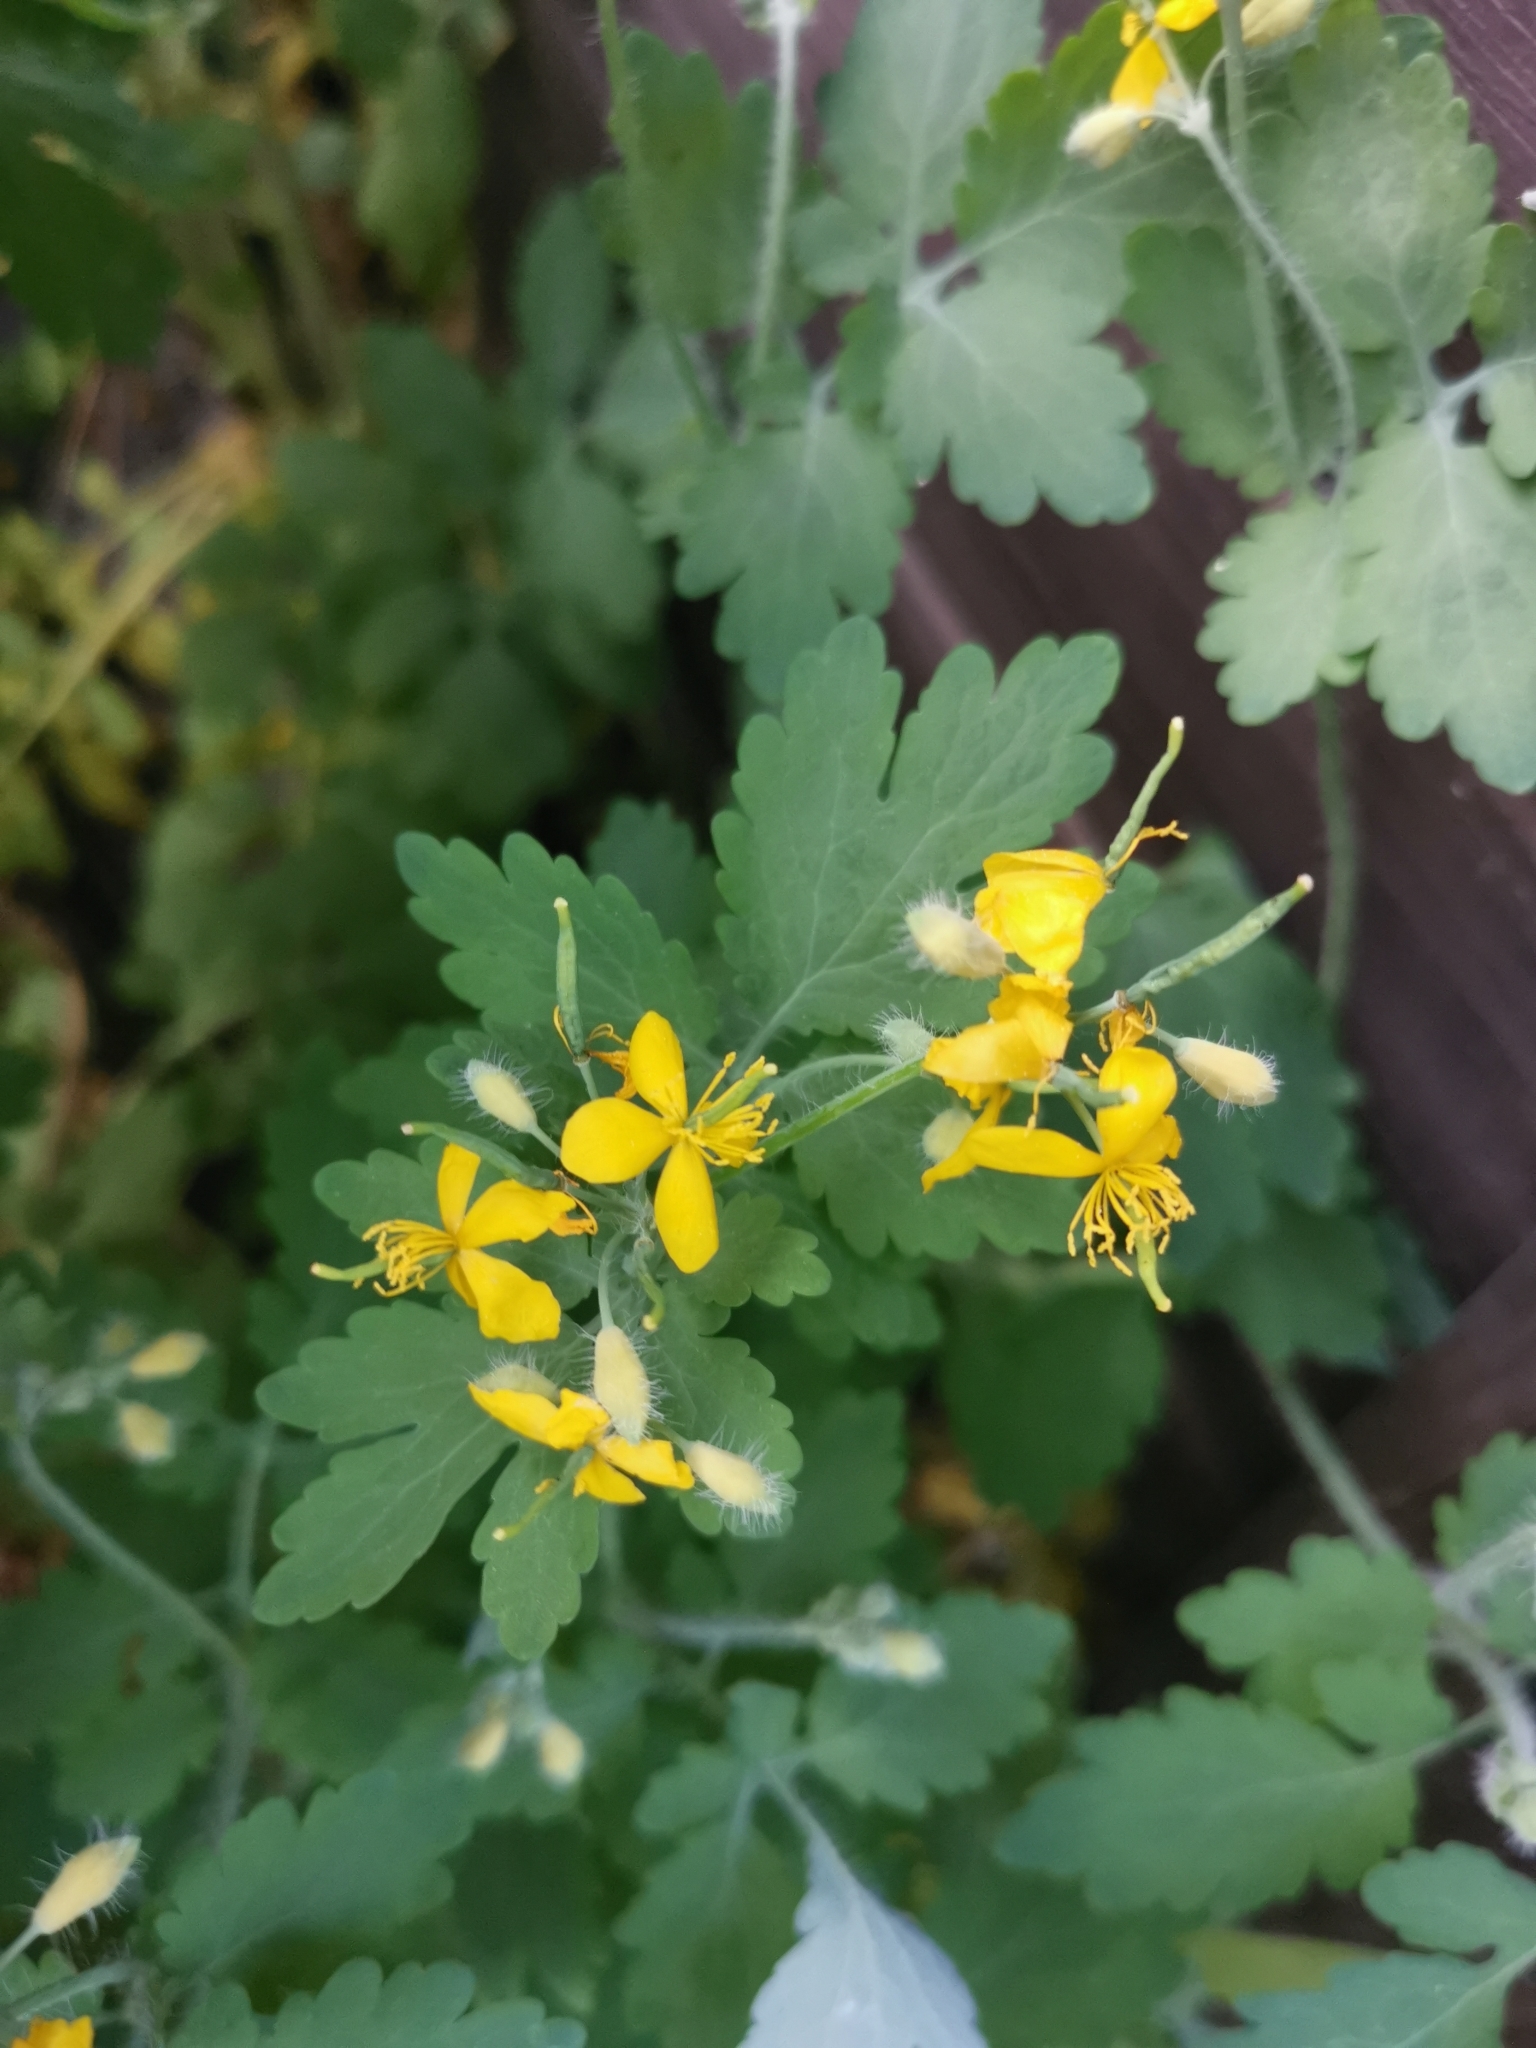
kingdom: Plantae
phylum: Tracheophyta
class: Magnoliopsida
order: Ranunculales
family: Papaveraceae
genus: Chelidonium
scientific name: Chelidonium majus
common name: Greater celandine
